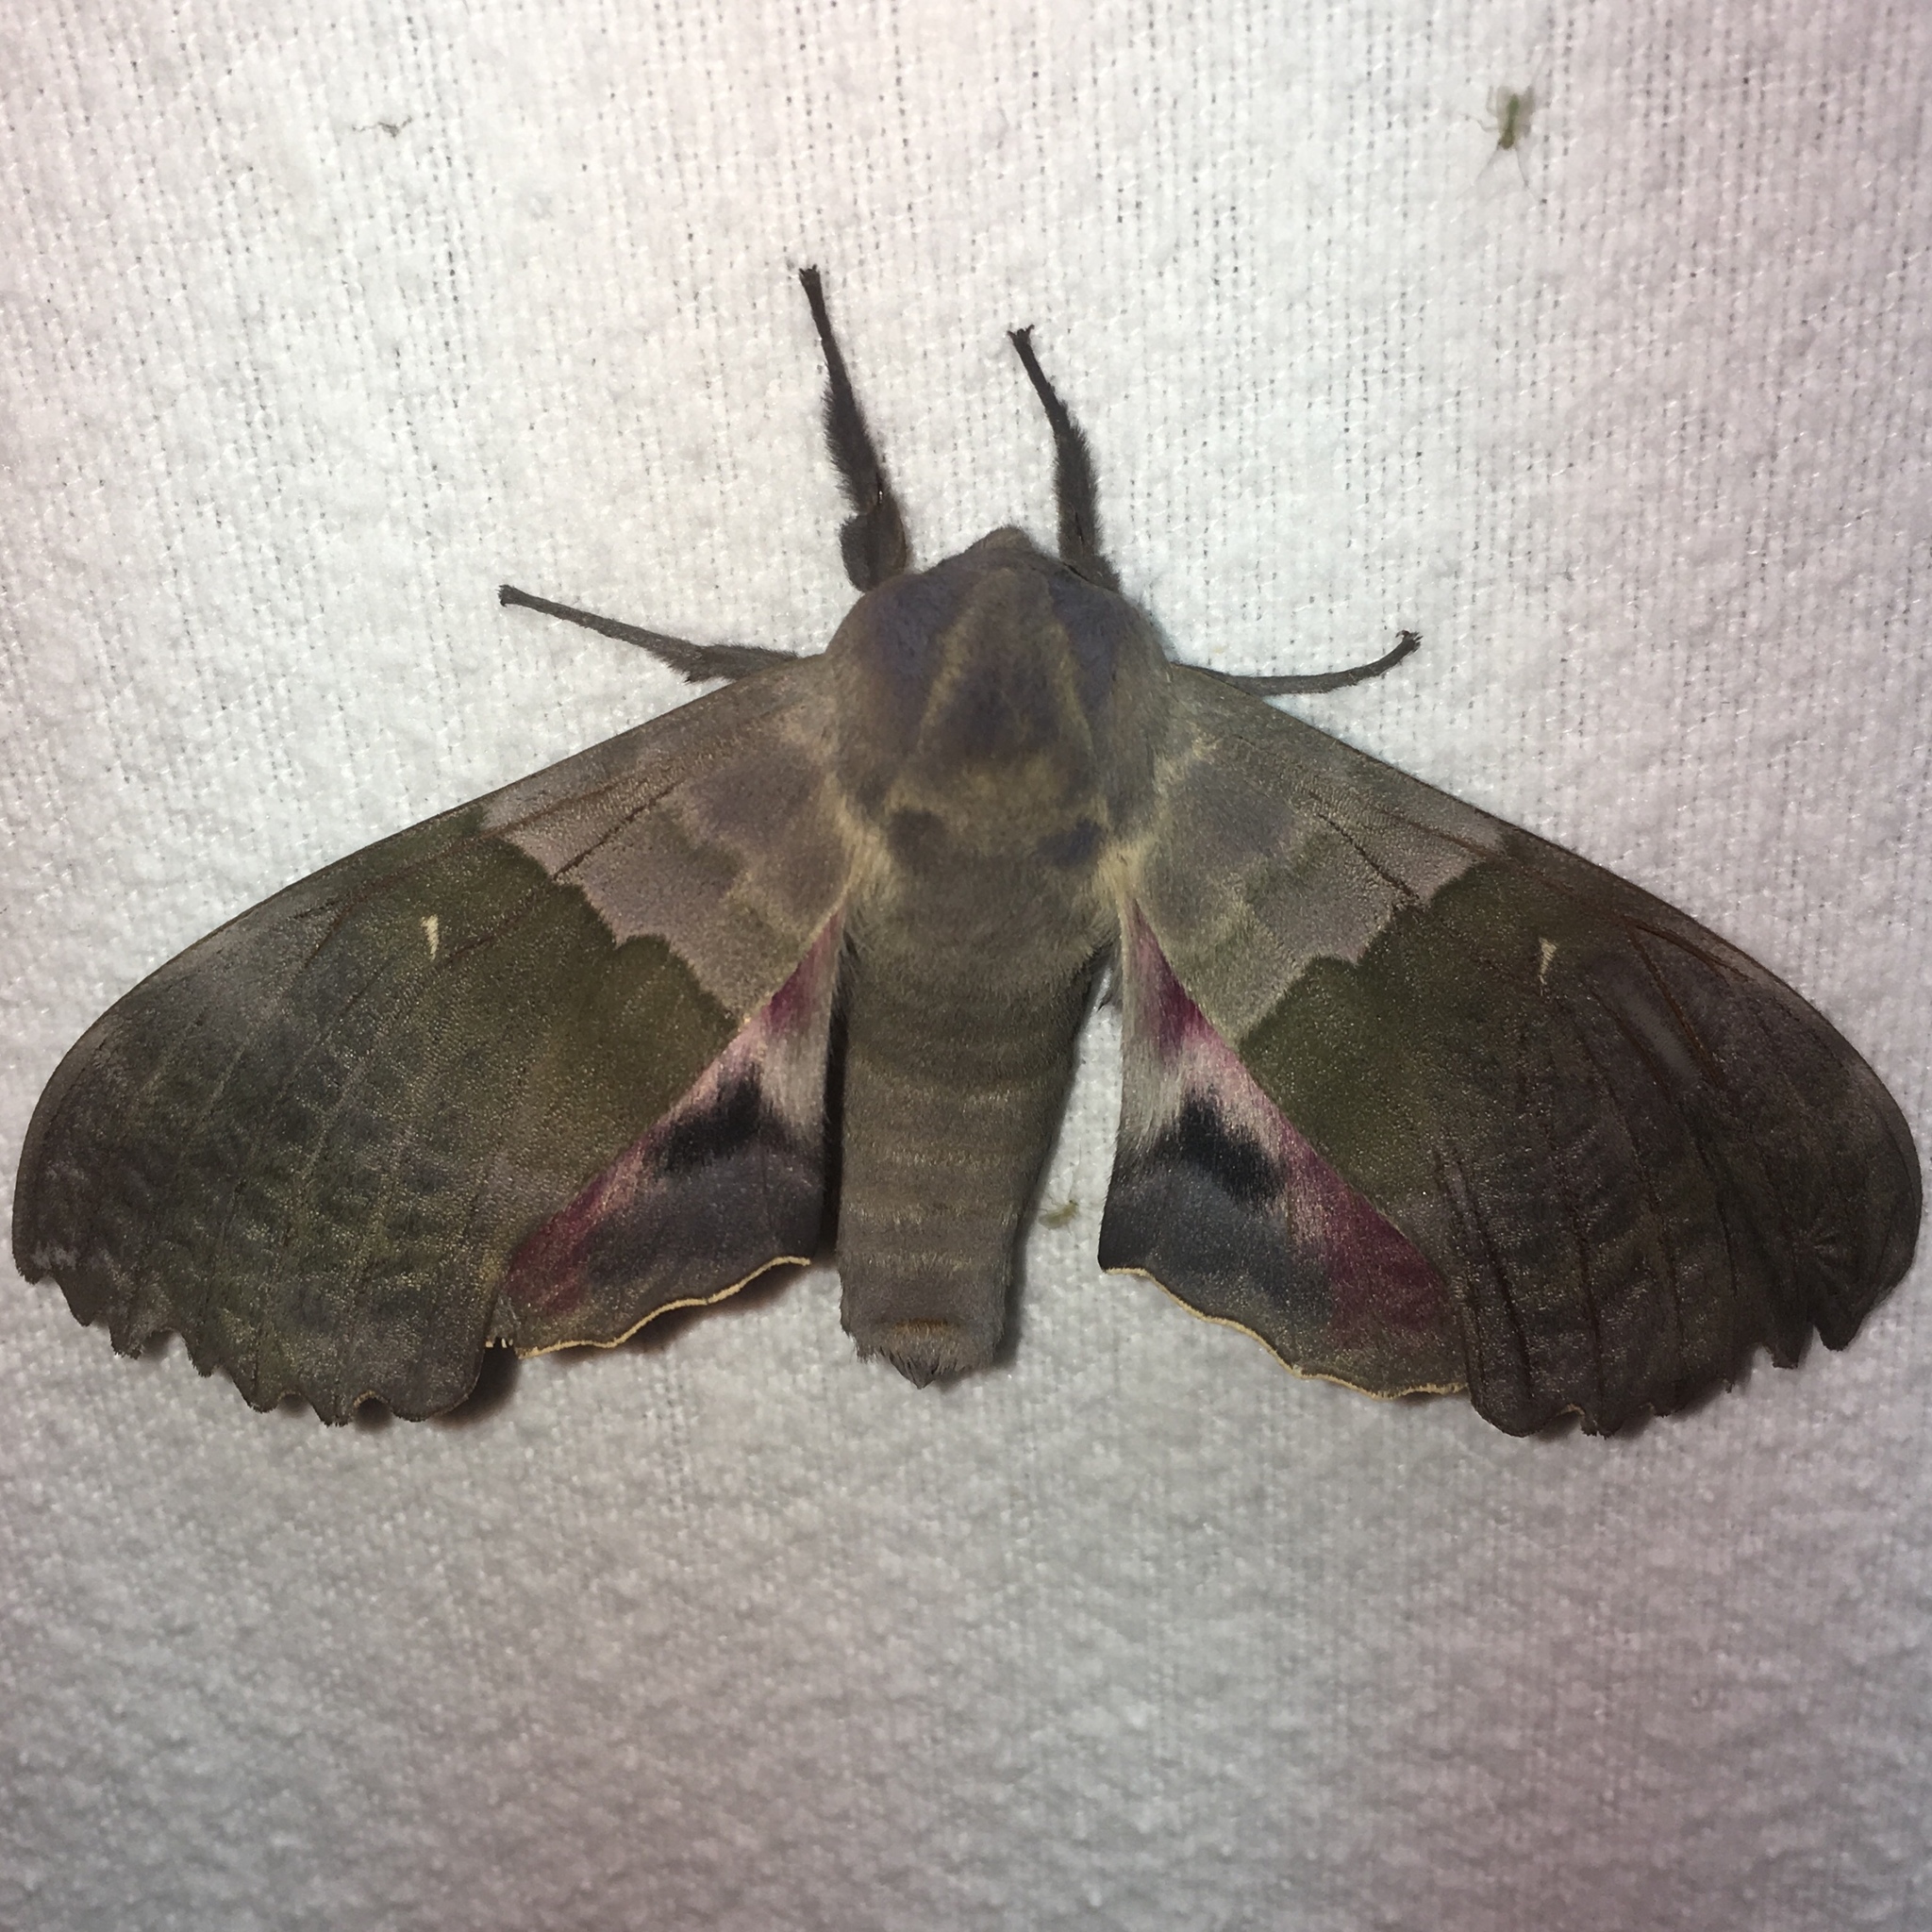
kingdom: Animalia
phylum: Arthropoda
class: Insecta
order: Lepidoptera
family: Sphingidae
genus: Pachysphinx
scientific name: Pachysphinx modesta
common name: Big poplar sphinx
